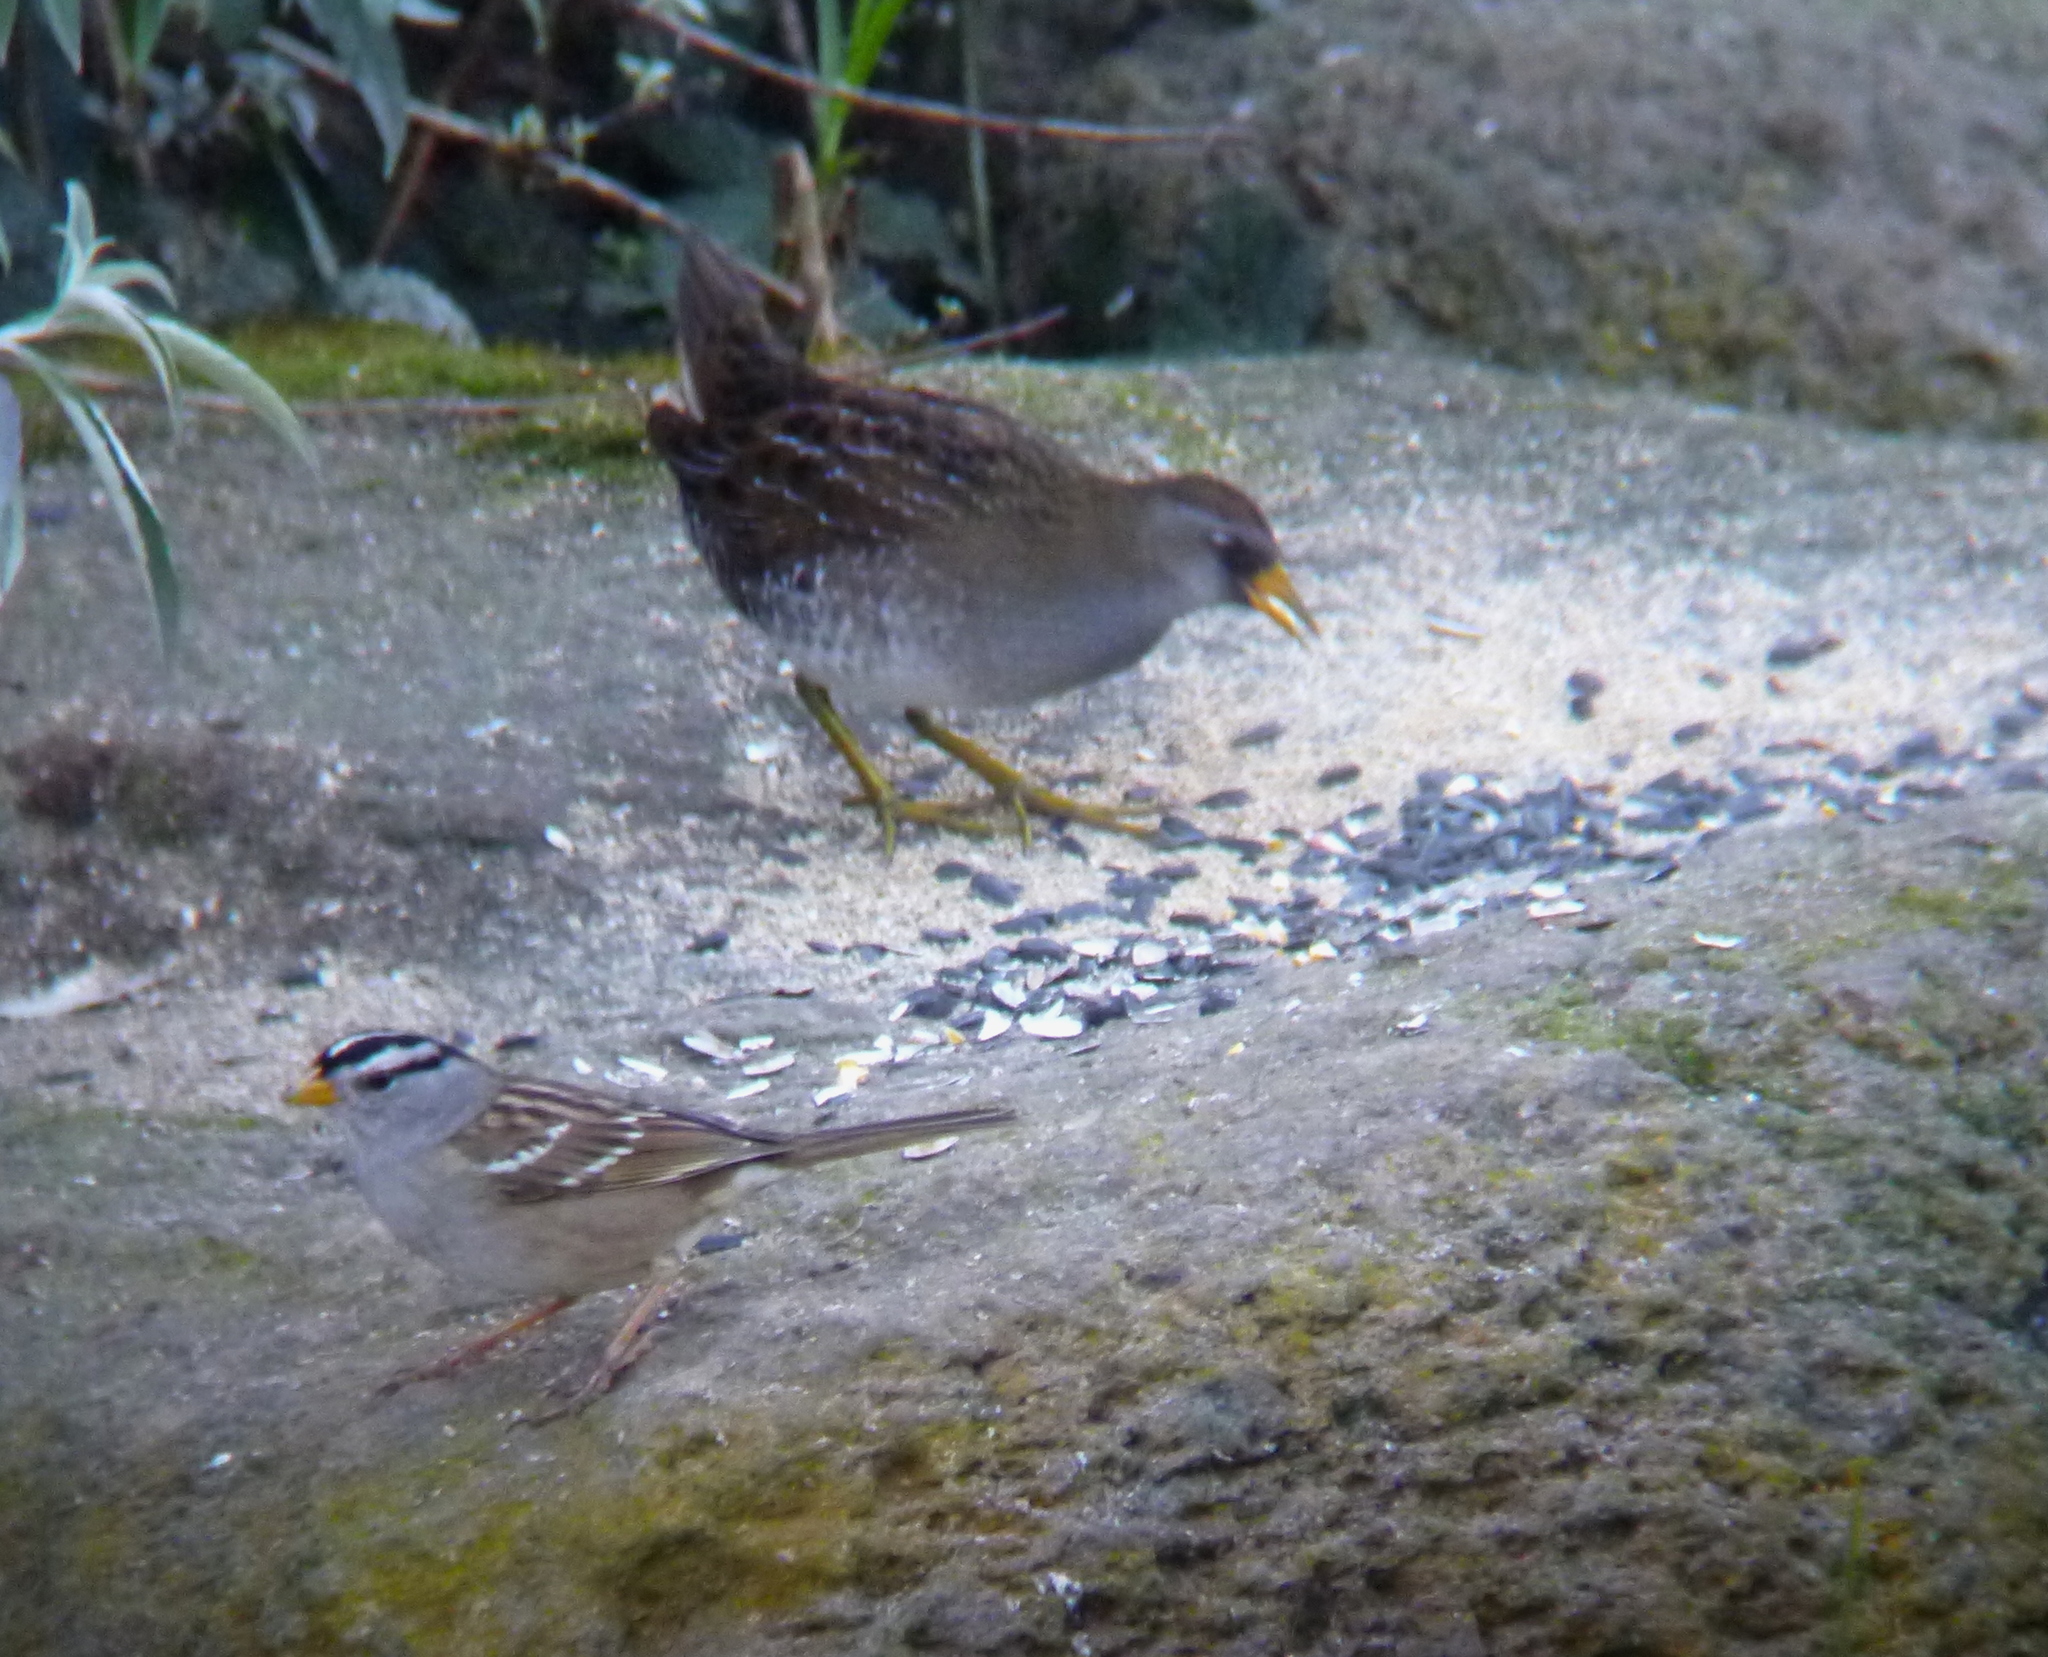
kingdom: Animalia
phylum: Chordata
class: Aves
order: Gruiformes
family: Rallidae
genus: Porzana
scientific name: Porzana carolina
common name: Sora
